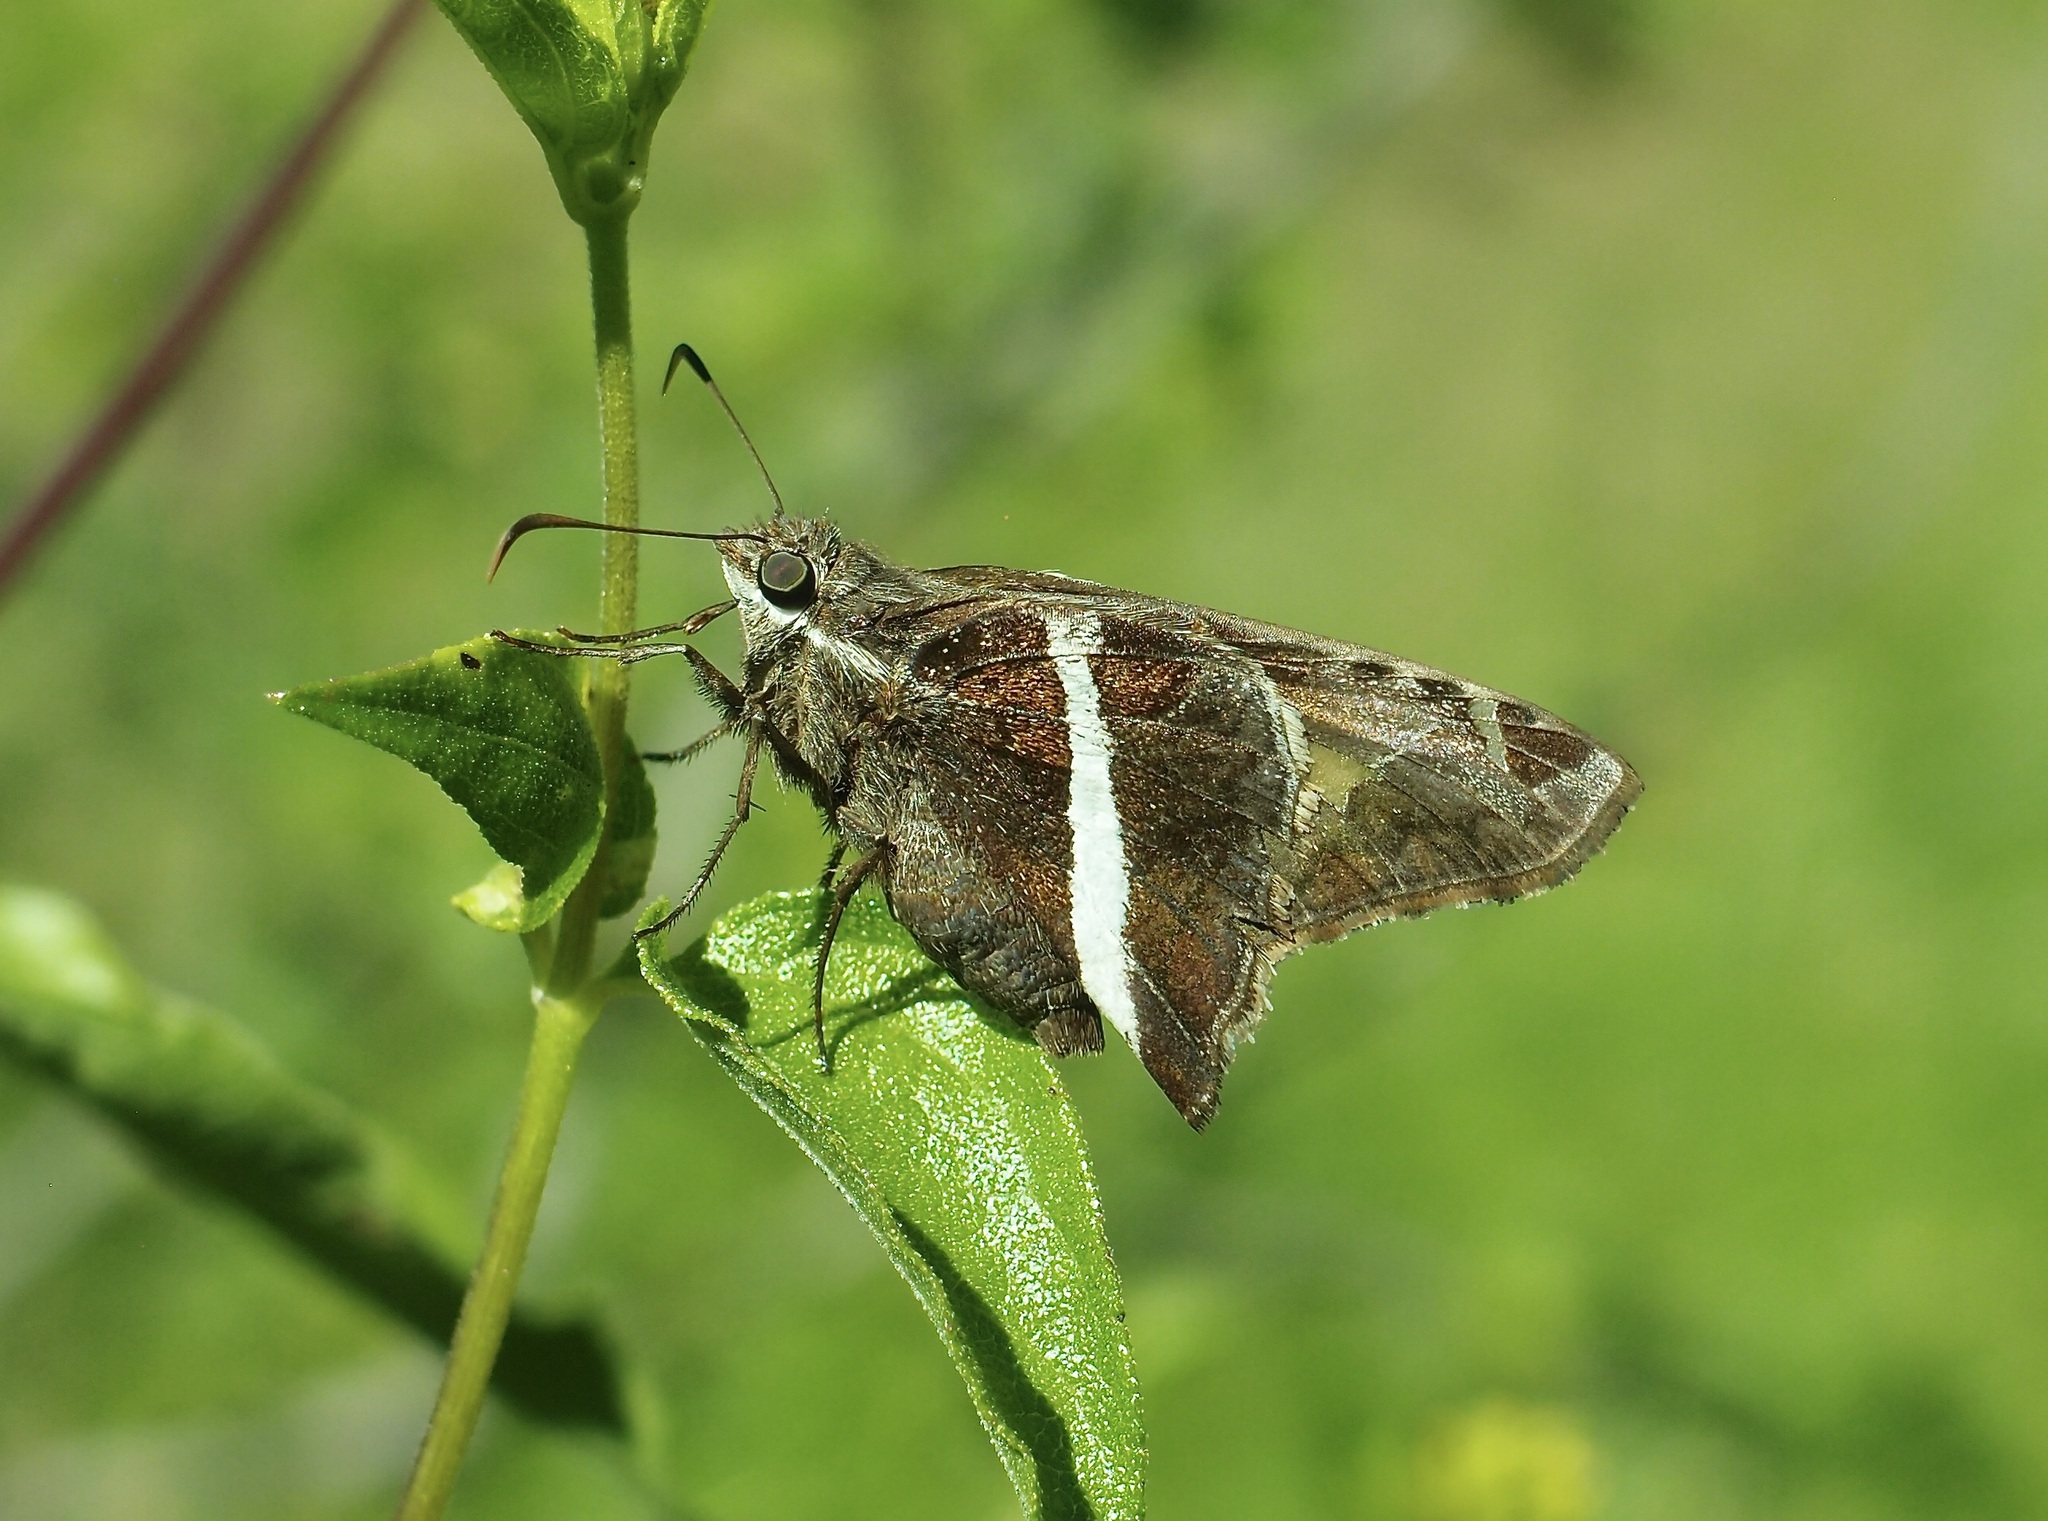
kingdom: Animalia
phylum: Arthropoda
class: Insecta
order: Lepidoptera
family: Hesperiidae
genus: Chioides
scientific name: Chioides catillus
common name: Silverbanded skipper
